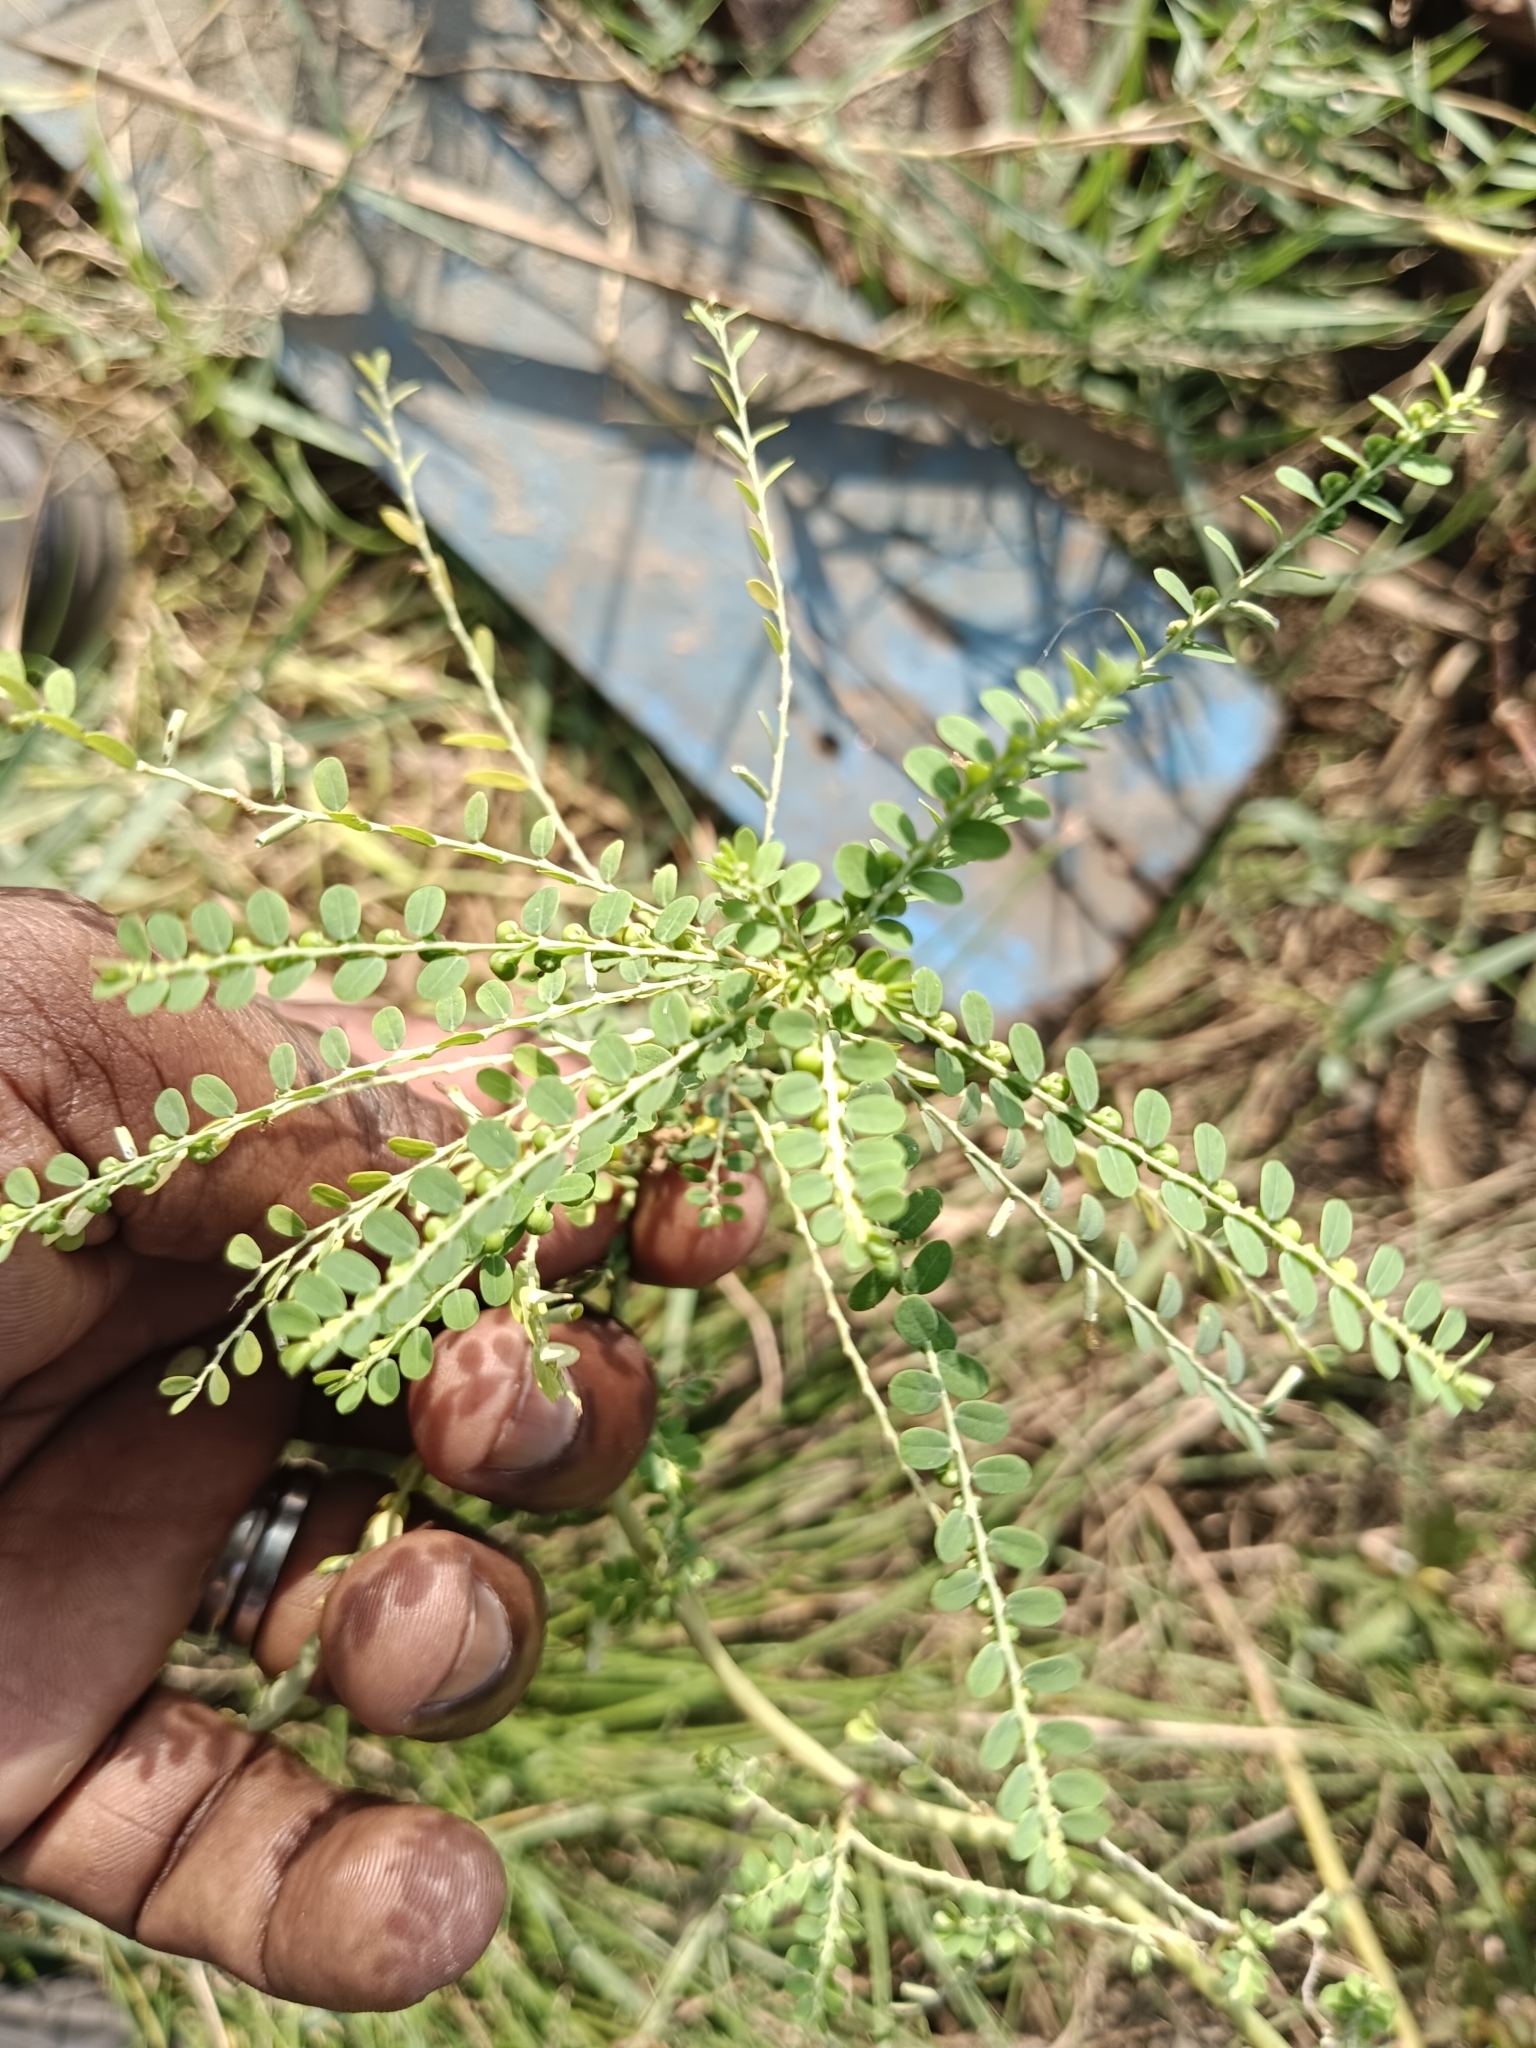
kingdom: Plantae
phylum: Tracheophyta
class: Magnoliopsida
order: Malpighiales
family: Phyllanthaceae
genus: Phyllanthus
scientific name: Phyllanthus amarus
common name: Carry me seed
